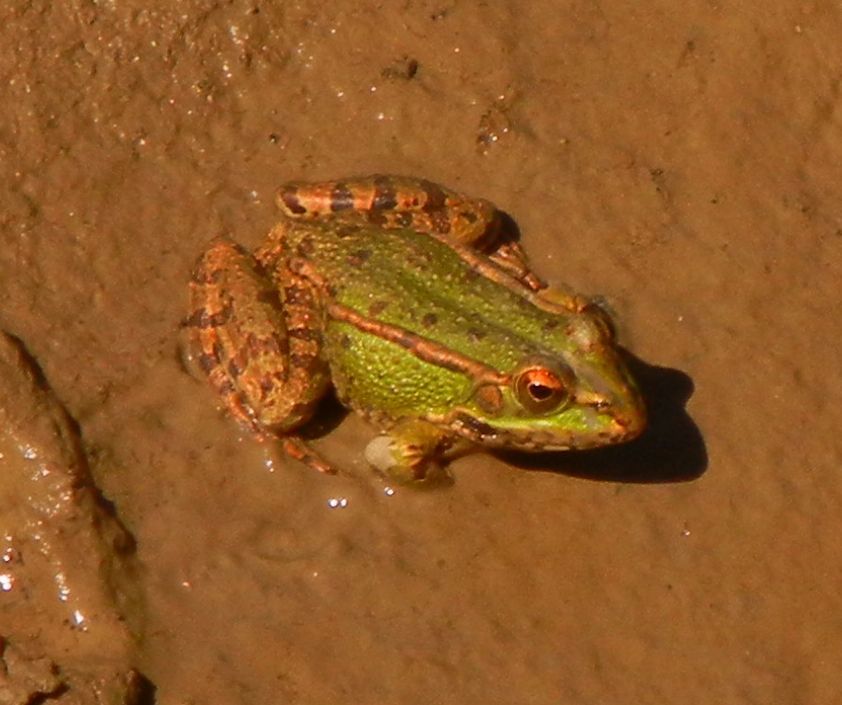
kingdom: Animalia
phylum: Chordata
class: Amphibia
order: Anura
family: Ranidae
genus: Pelophylax
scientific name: Pelophylax perezi
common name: Perez's frog
